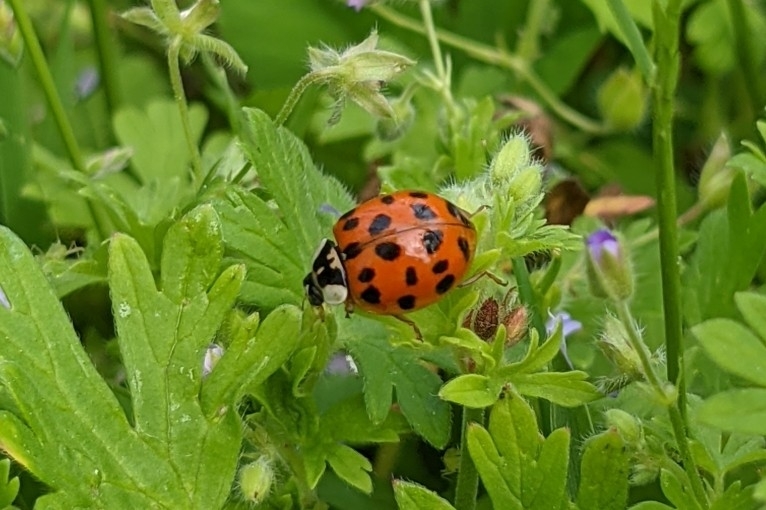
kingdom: Animalia
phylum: Arthropoda
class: Insecta
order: Coleoptera
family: Coccinellidae
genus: Harmonia
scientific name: Harmonia axyridis
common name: Harlequin ladybird
